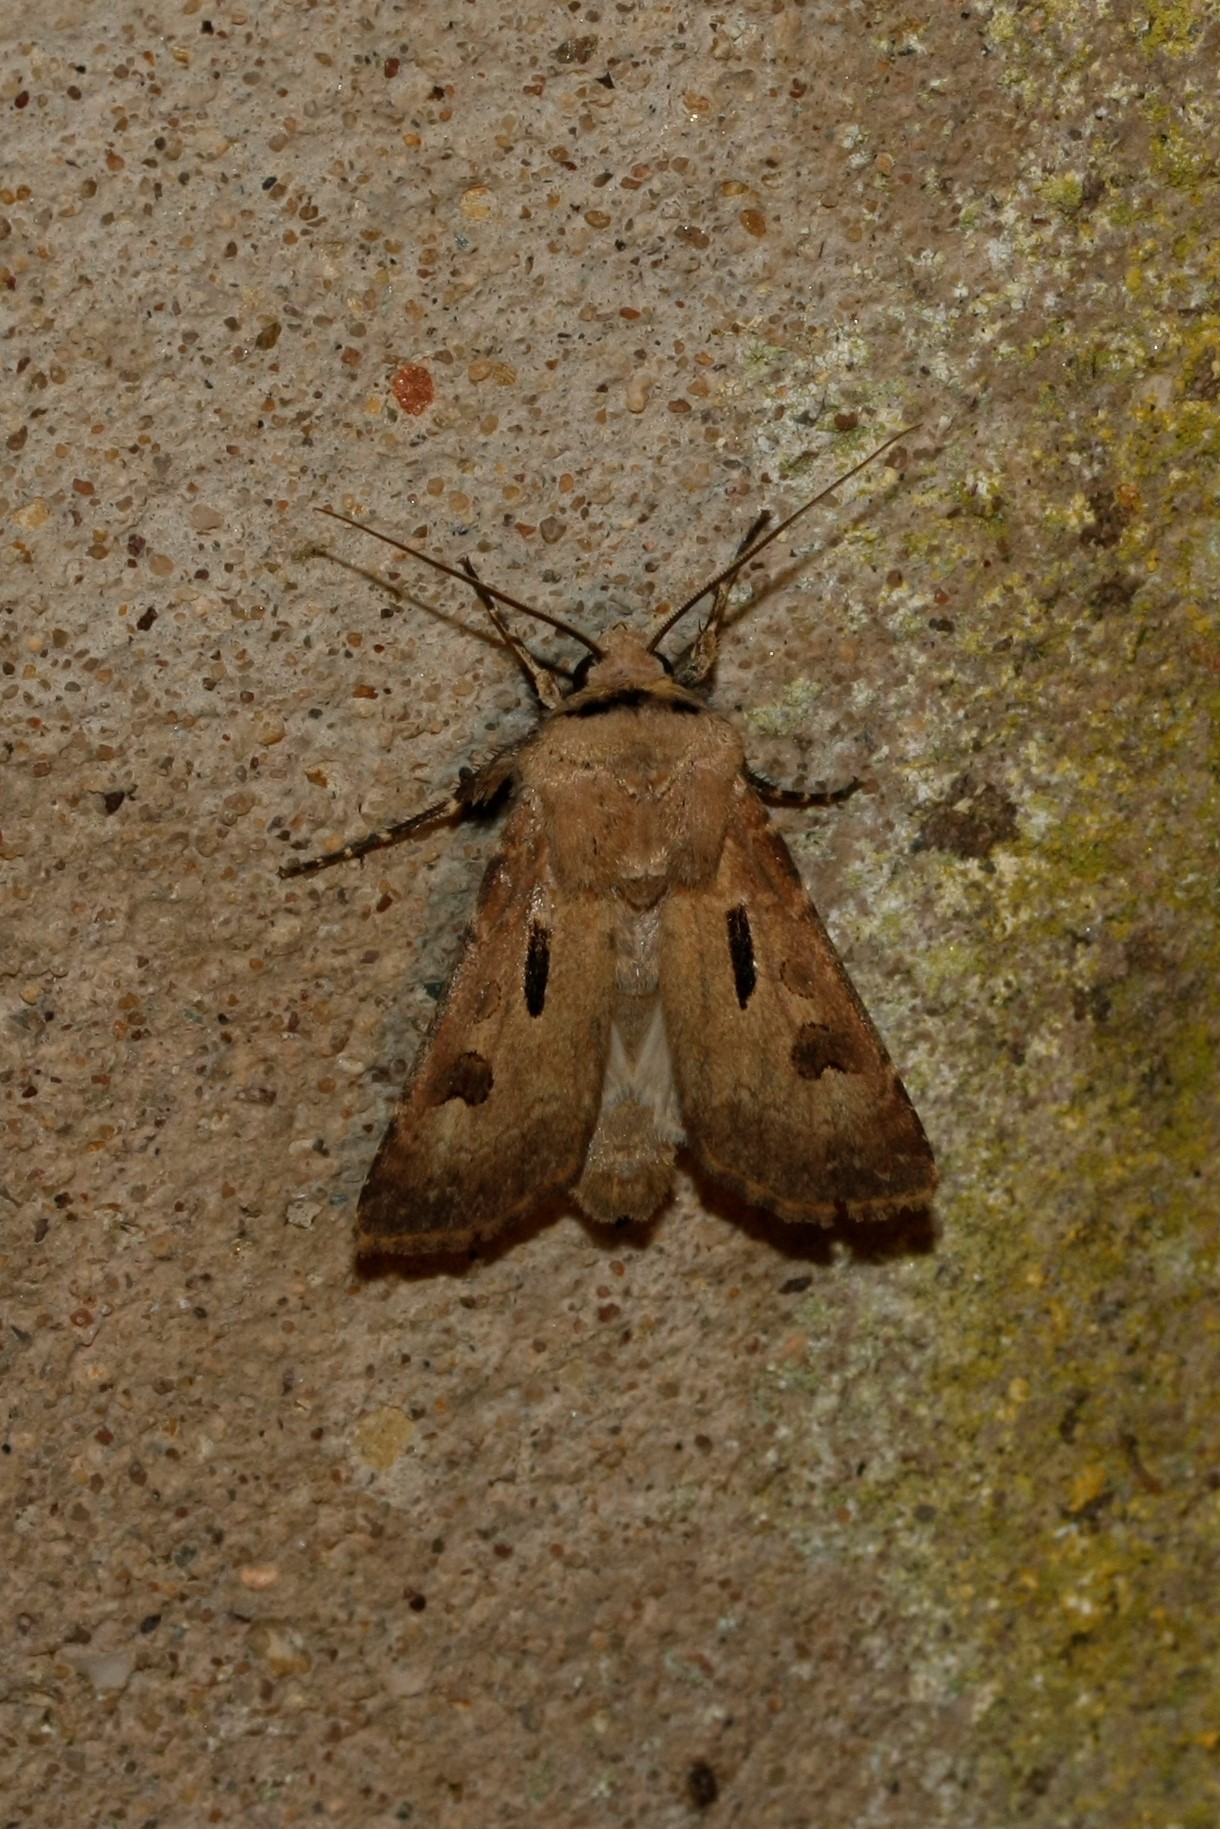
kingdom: Animalia
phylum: Arthropoda
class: Insecta
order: Lepidoptera
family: Noctuidae
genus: Agrotis
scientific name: Agrotis exclamationis
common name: Heart and dart
